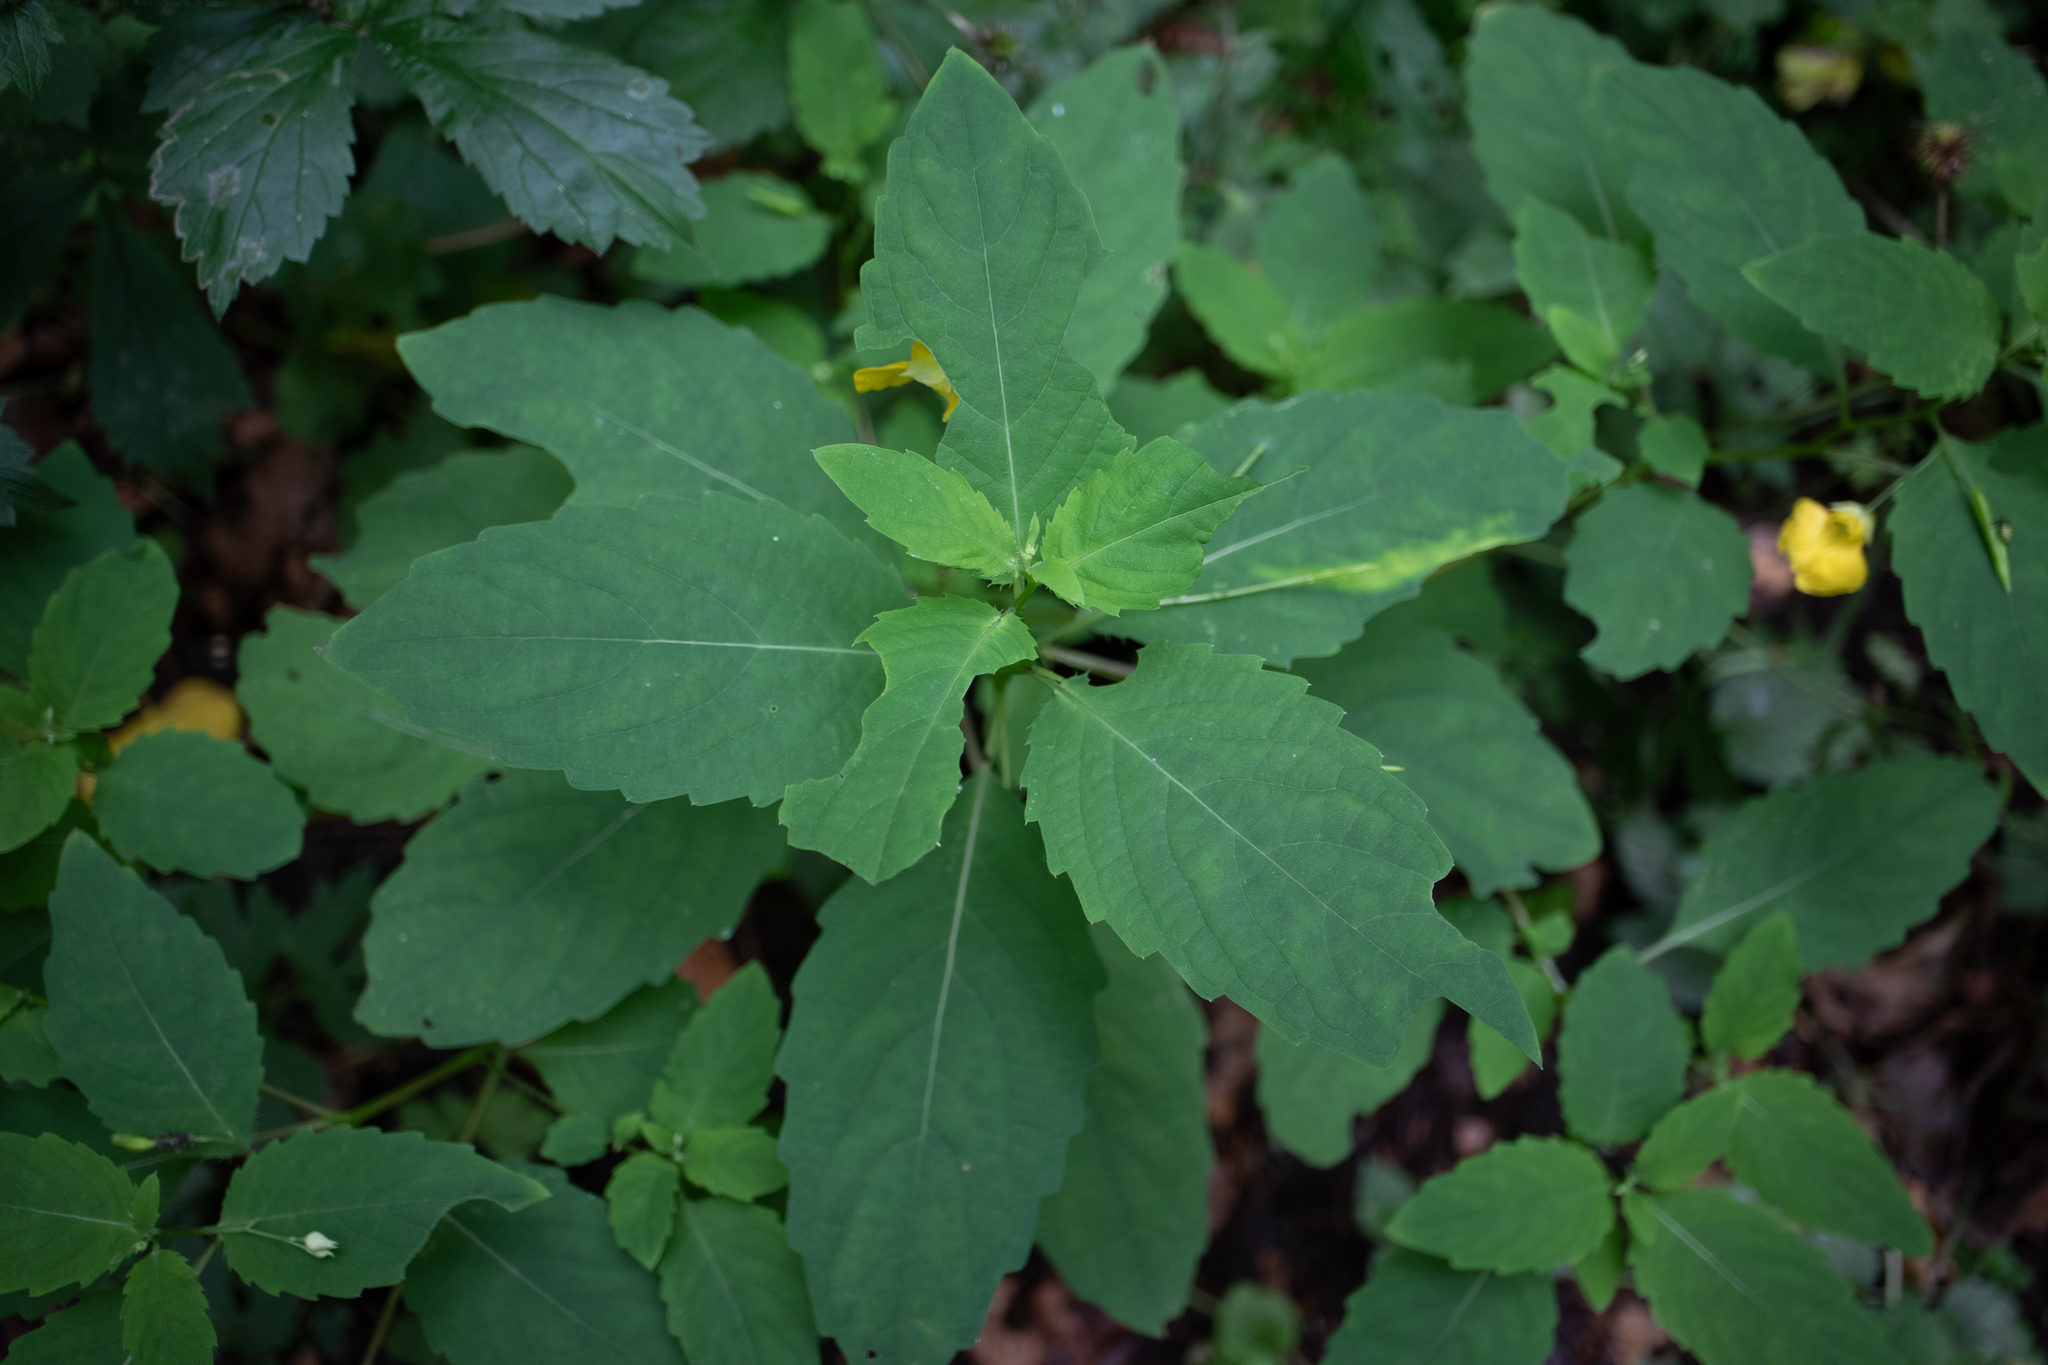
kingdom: Plantae
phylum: Tracheophyta
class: Magnoliopsida
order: Ericales
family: Balsaminaceae
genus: Impatiens
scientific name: Impatiens noli-tangere
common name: Touch-me-not balsam
